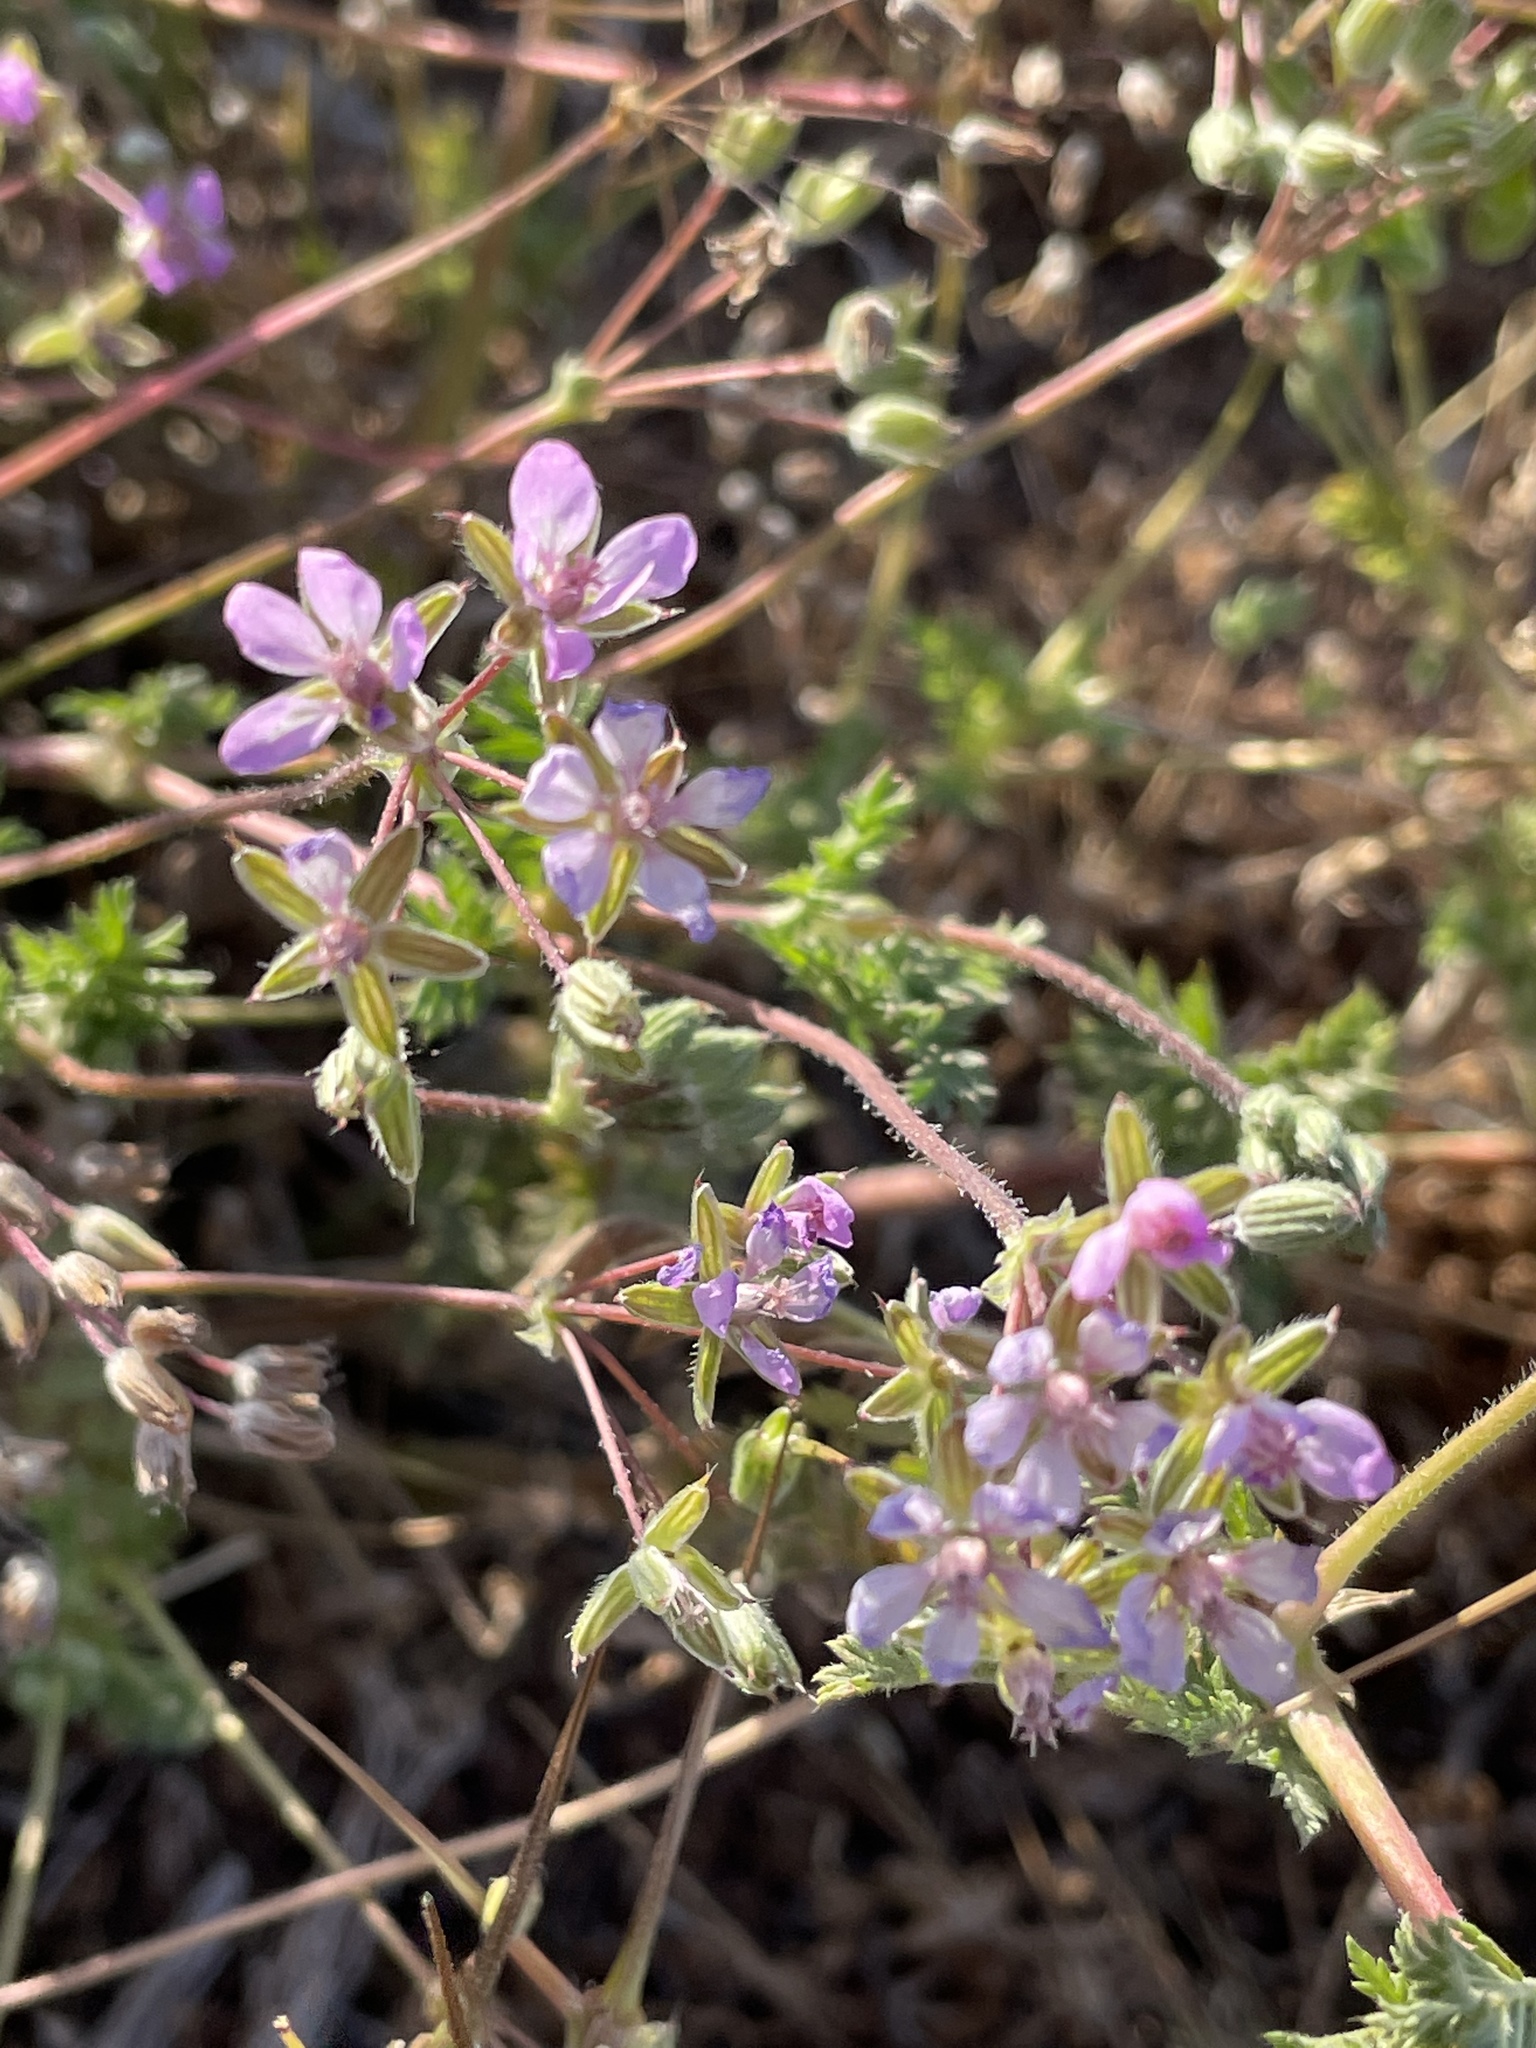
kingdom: Plantae
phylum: Tracheophyta
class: Magnoliopsida
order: Geraniales
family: Geraniaceae
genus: Erodium
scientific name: Erodium cicutarium
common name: Common stork's-bill
